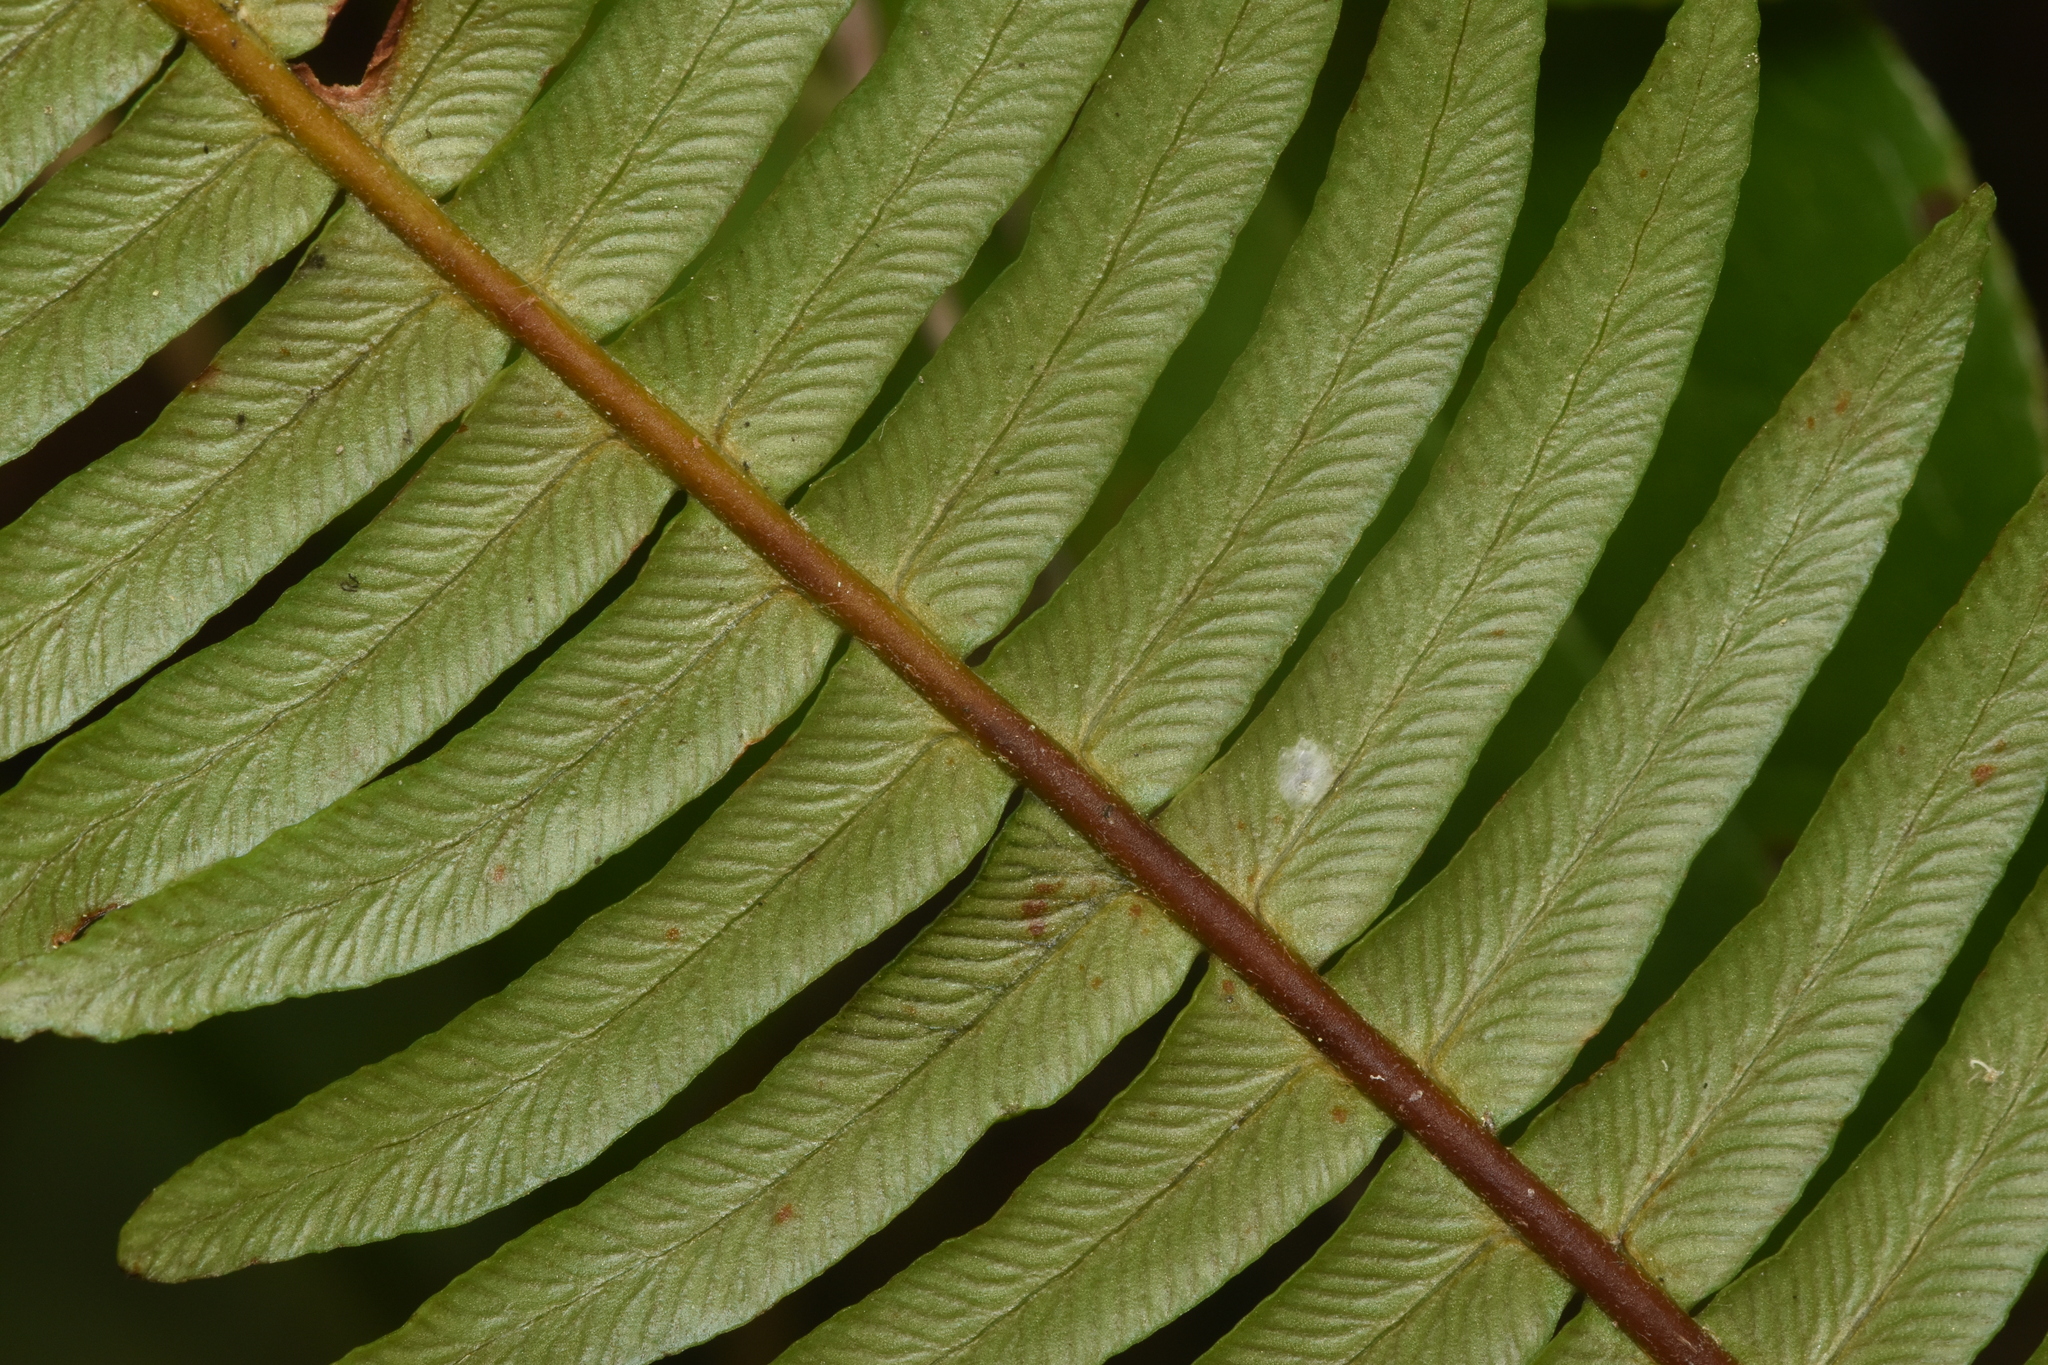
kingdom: Plantae
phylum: Tracheophyta
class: Polypodiopsida
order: Polypodiales
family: Blechnaceae
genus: Struthiopteris
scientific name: Struthiopteris spicant
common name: Deer fern
